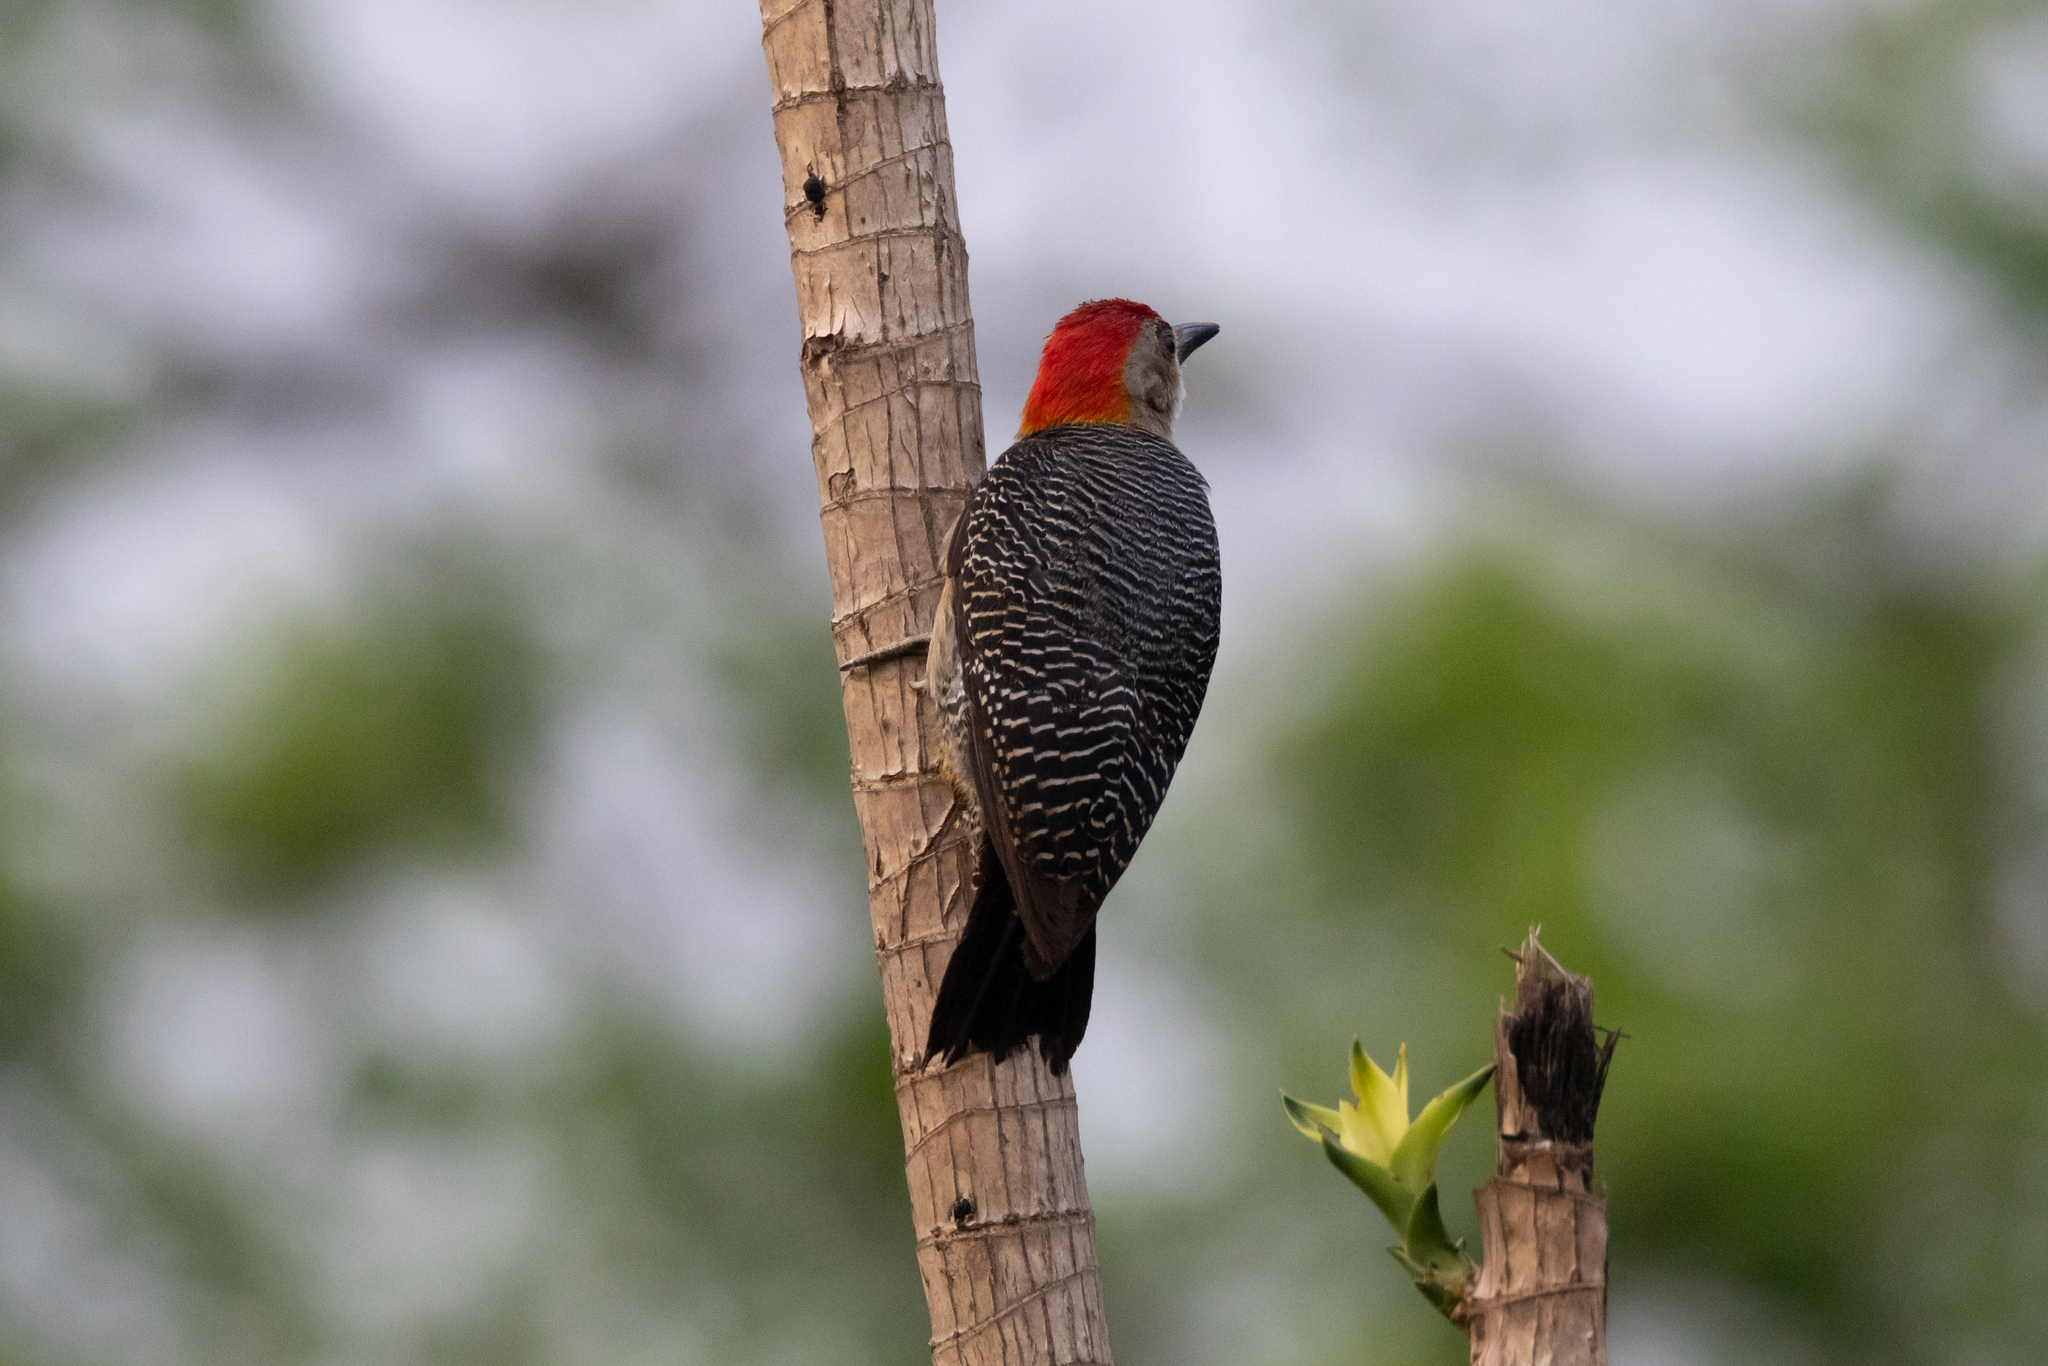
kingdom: Animalia
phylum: Chordata
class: Aves
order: Piciformes
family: Picidae
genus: Melanerpes
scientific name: Melanerpes aurifrons
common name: Golden-fronted woodpecker
